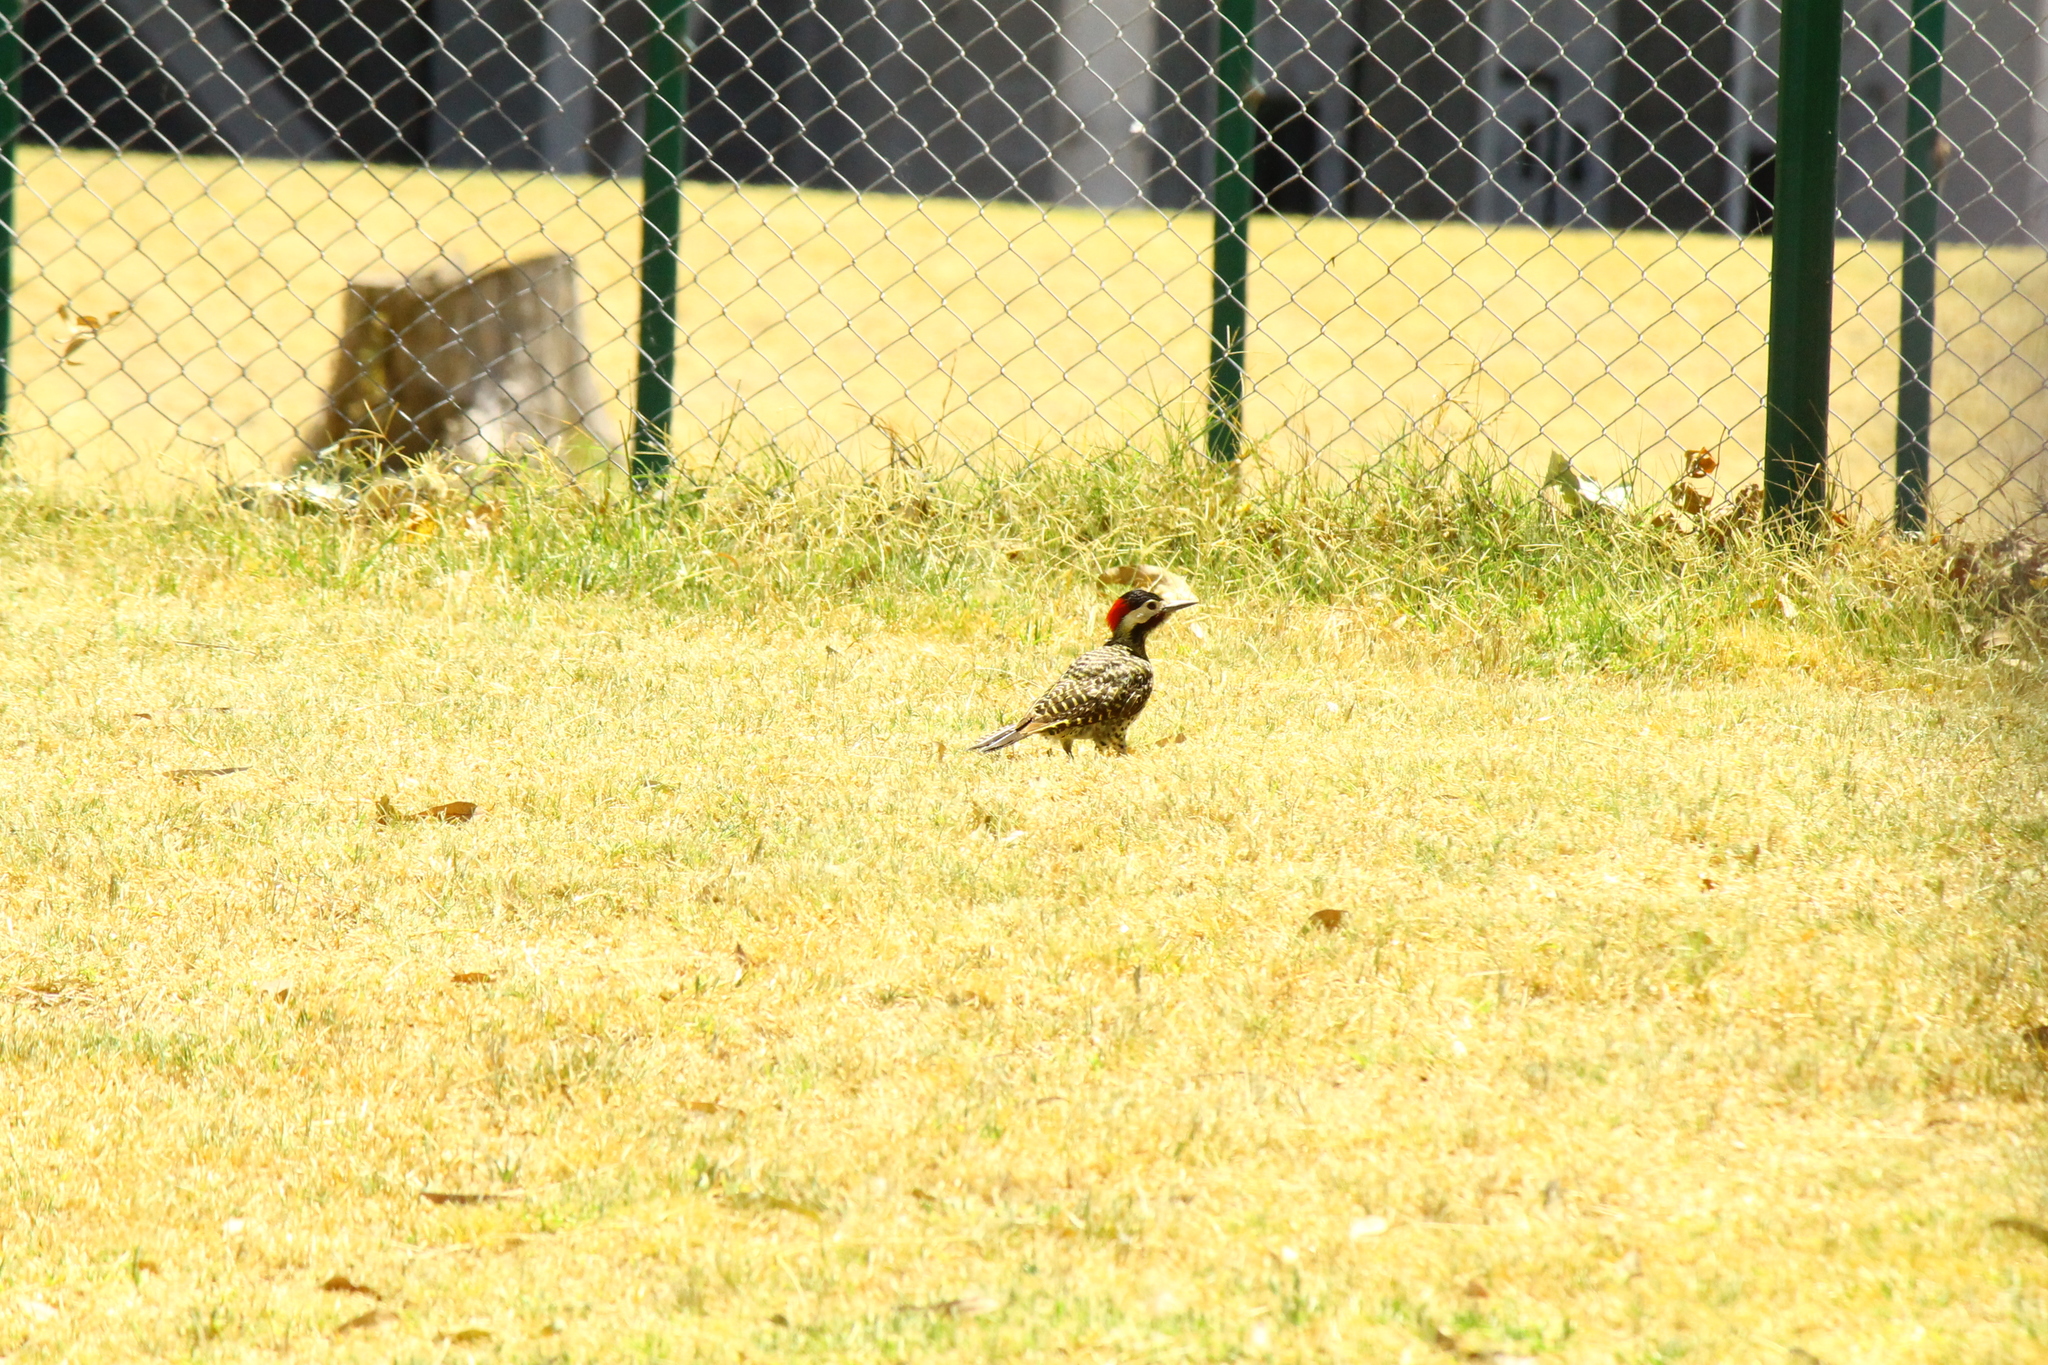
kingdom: Animalia
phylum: Chordata
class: Aves
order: Piciformes
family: Picidae
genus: Colaptes
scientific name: Colaptes melanochloros
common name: Green-barred woodpecker
